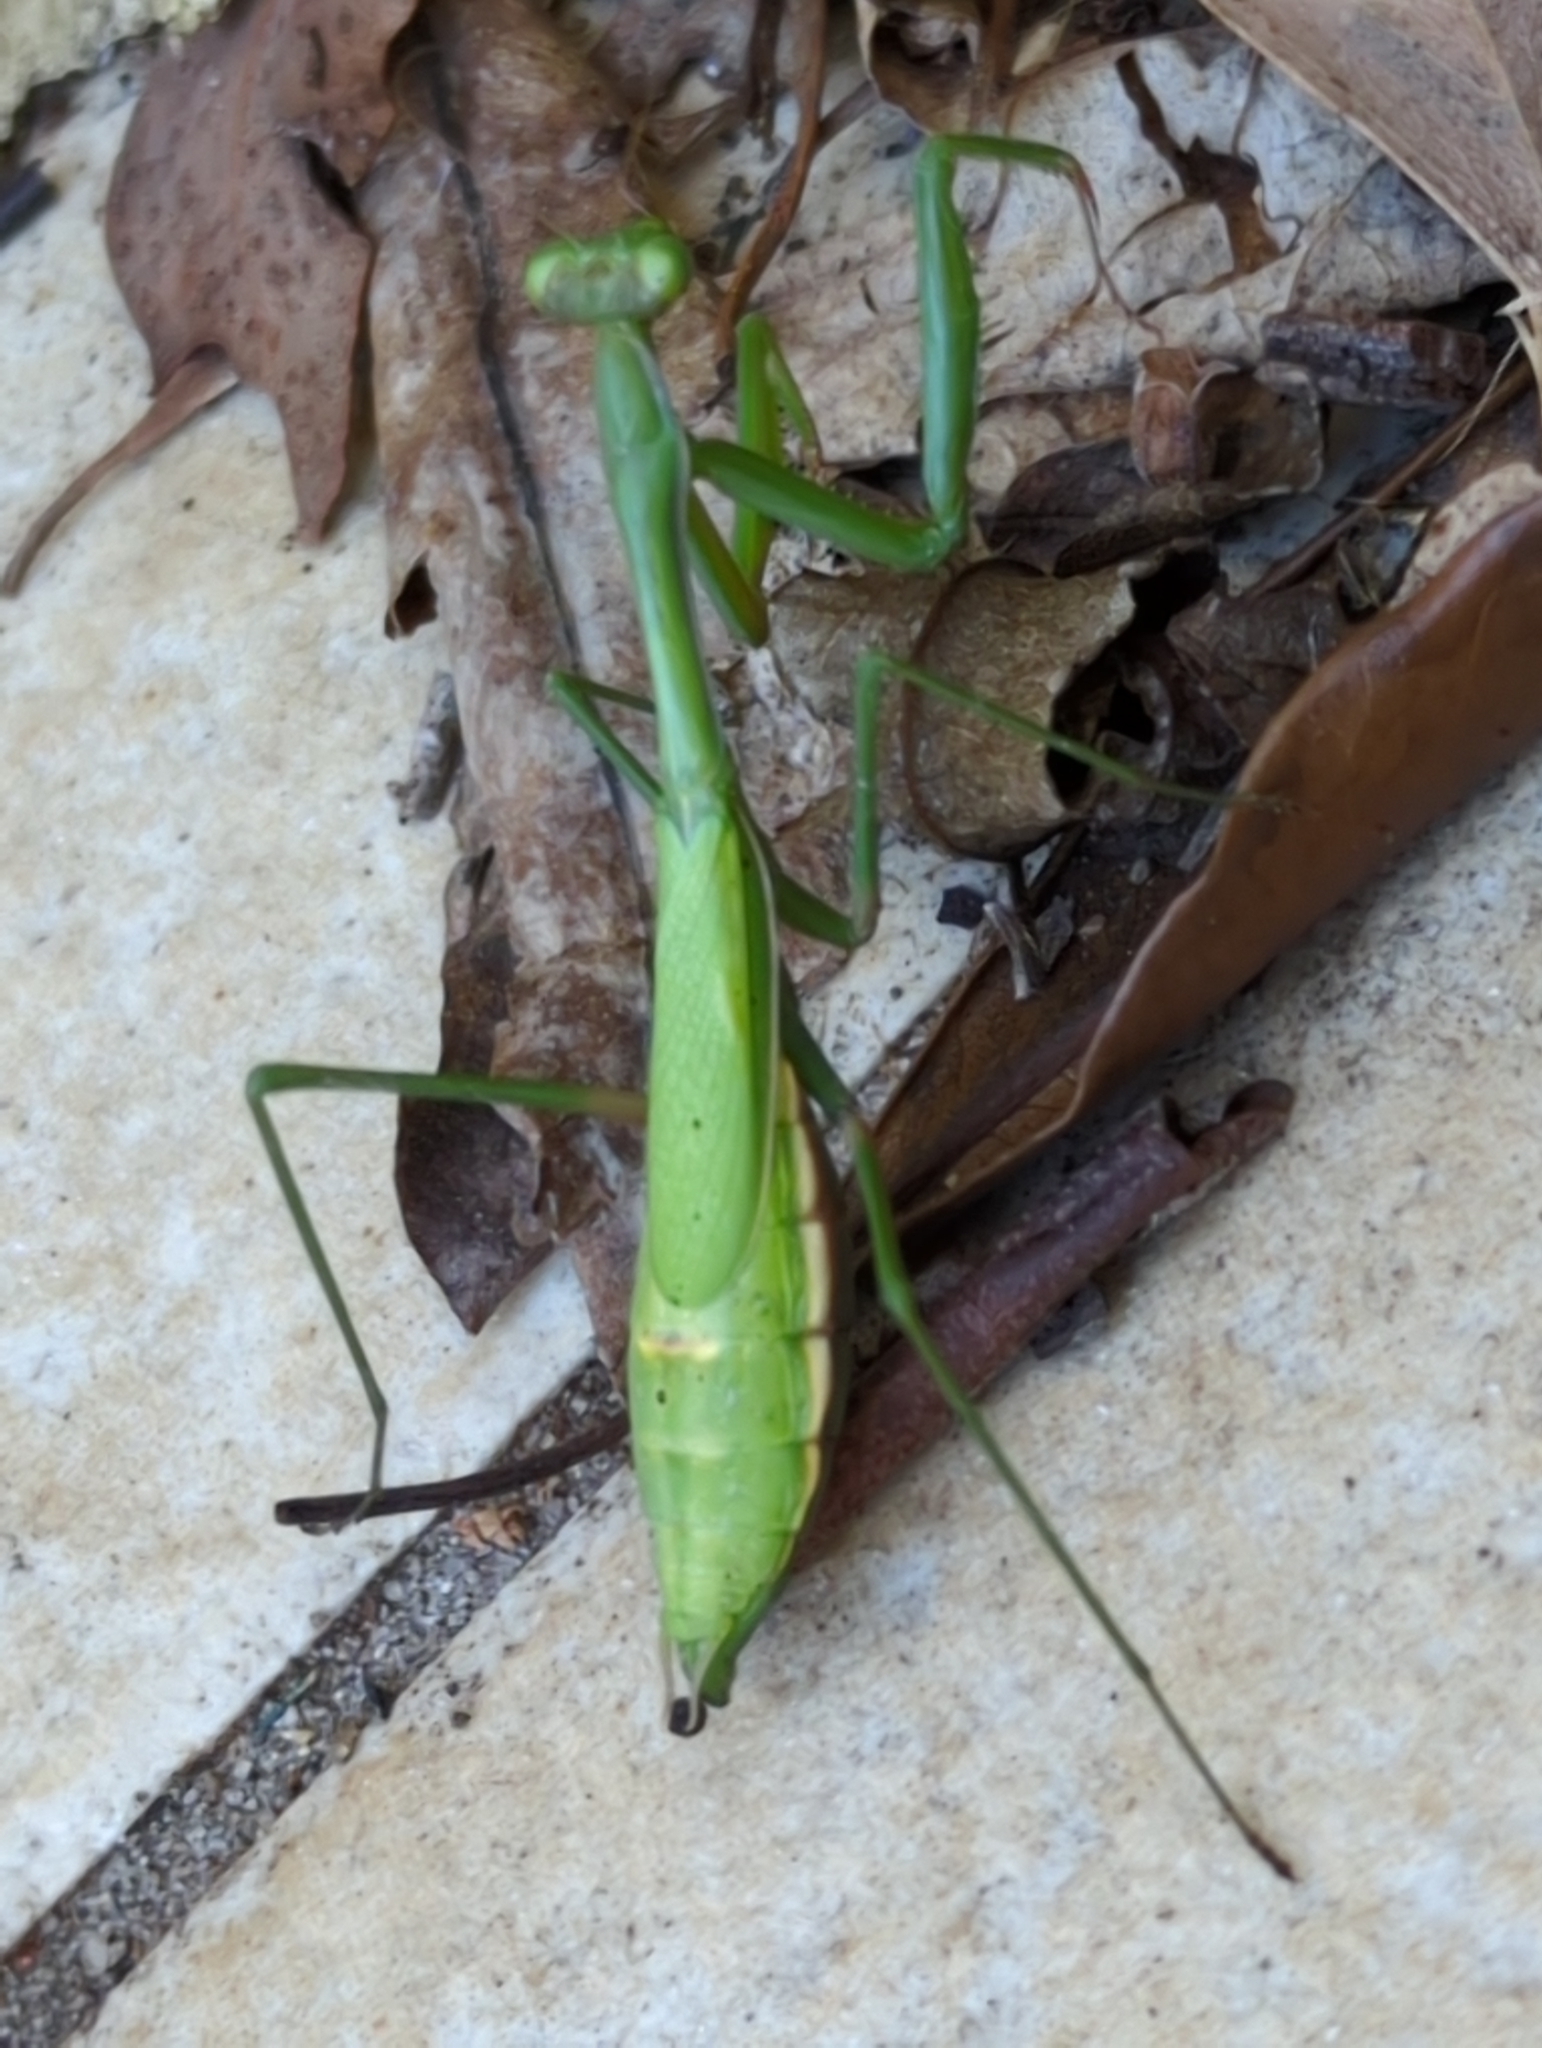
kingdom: Animalia
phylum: Arthropoda
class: Insecta
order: Mantodea
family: Mantidae
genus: Pseudomantis
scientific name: Pseudomantis albofimbriata
